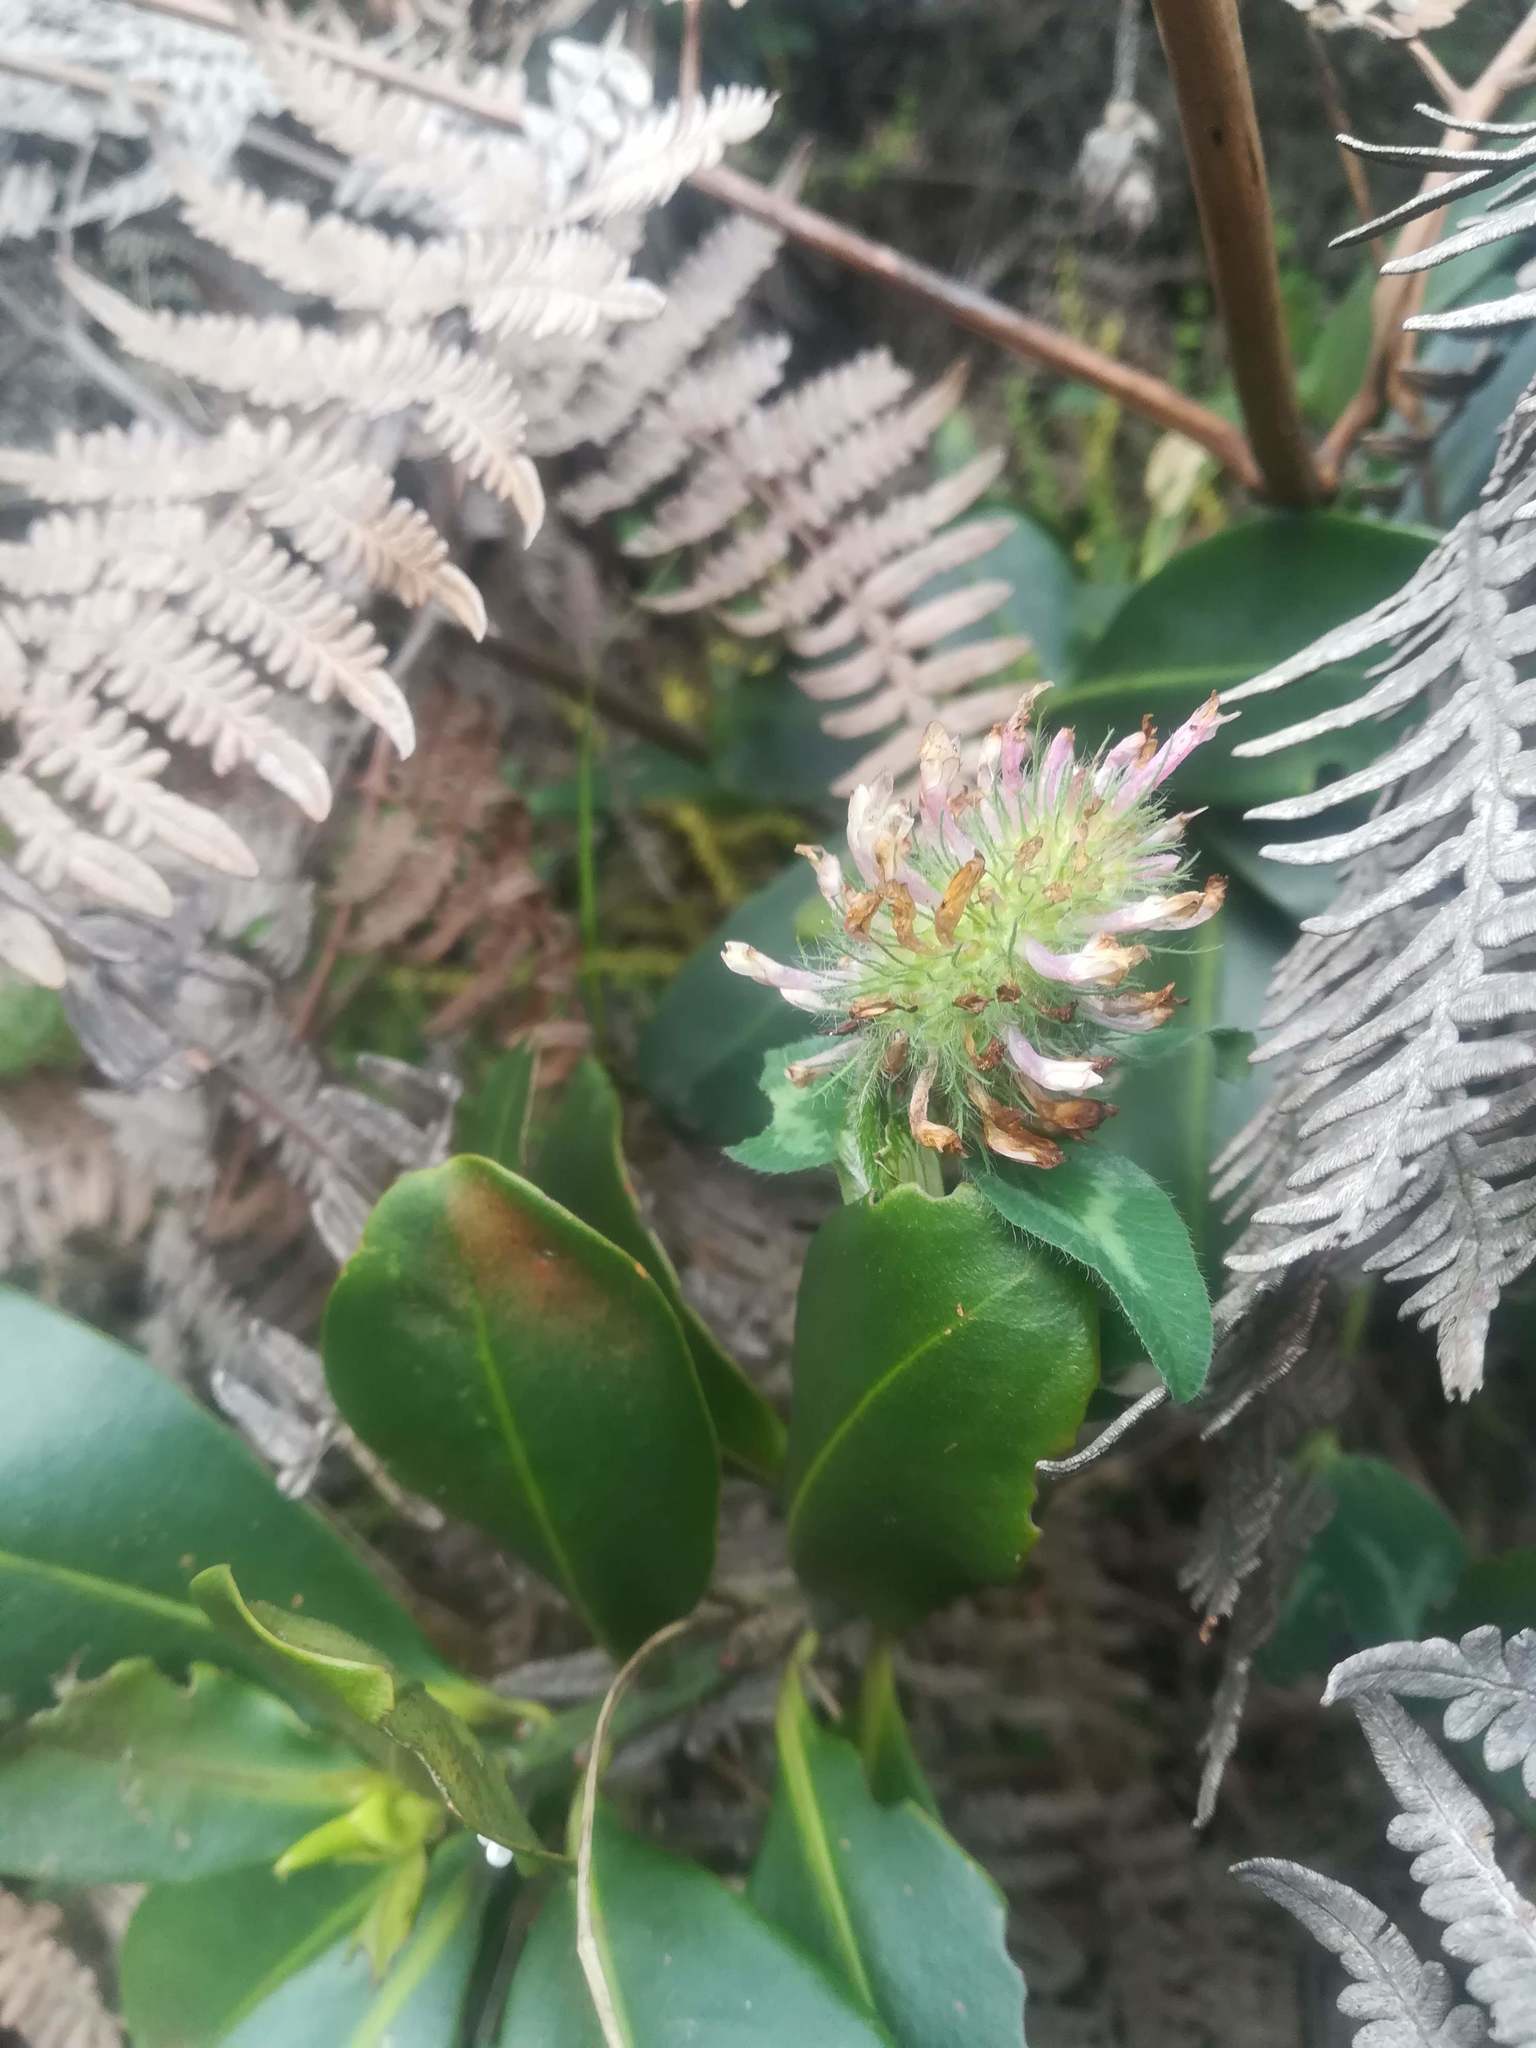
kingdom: Plantae
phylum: Tracheophyta
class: Magnoliopsida
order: Fabales
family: Fabaceae
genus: Trifolium
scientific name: Trifolium pratense
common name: Red clover
